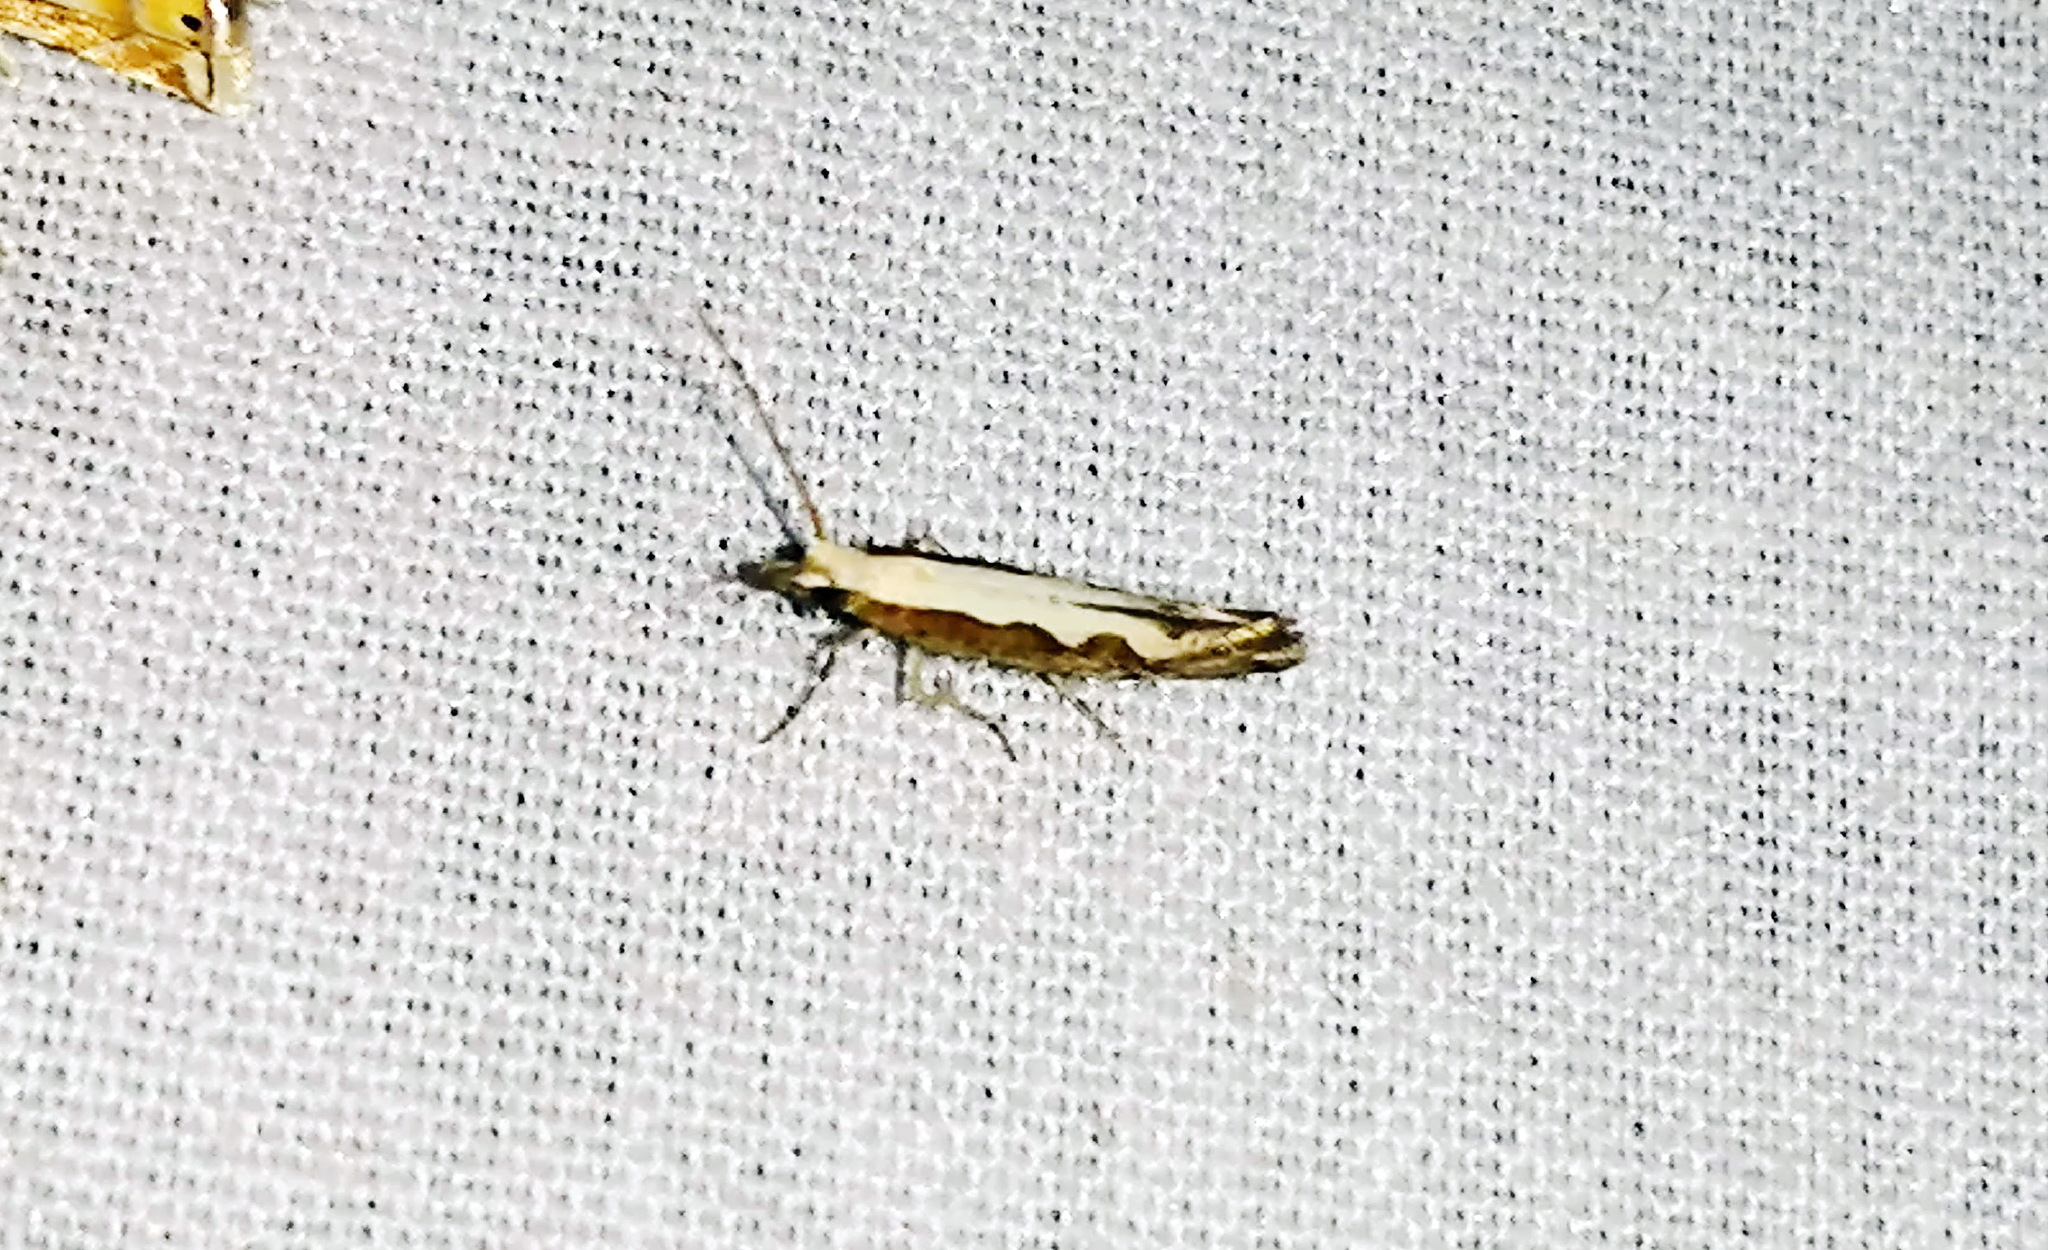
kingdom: Animalia
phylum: Arthropoda
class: Insecta
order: Lepidoptera
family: Plutellidae
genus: Plutella
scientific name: Plutella xylostella
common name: Diamond-back moth
